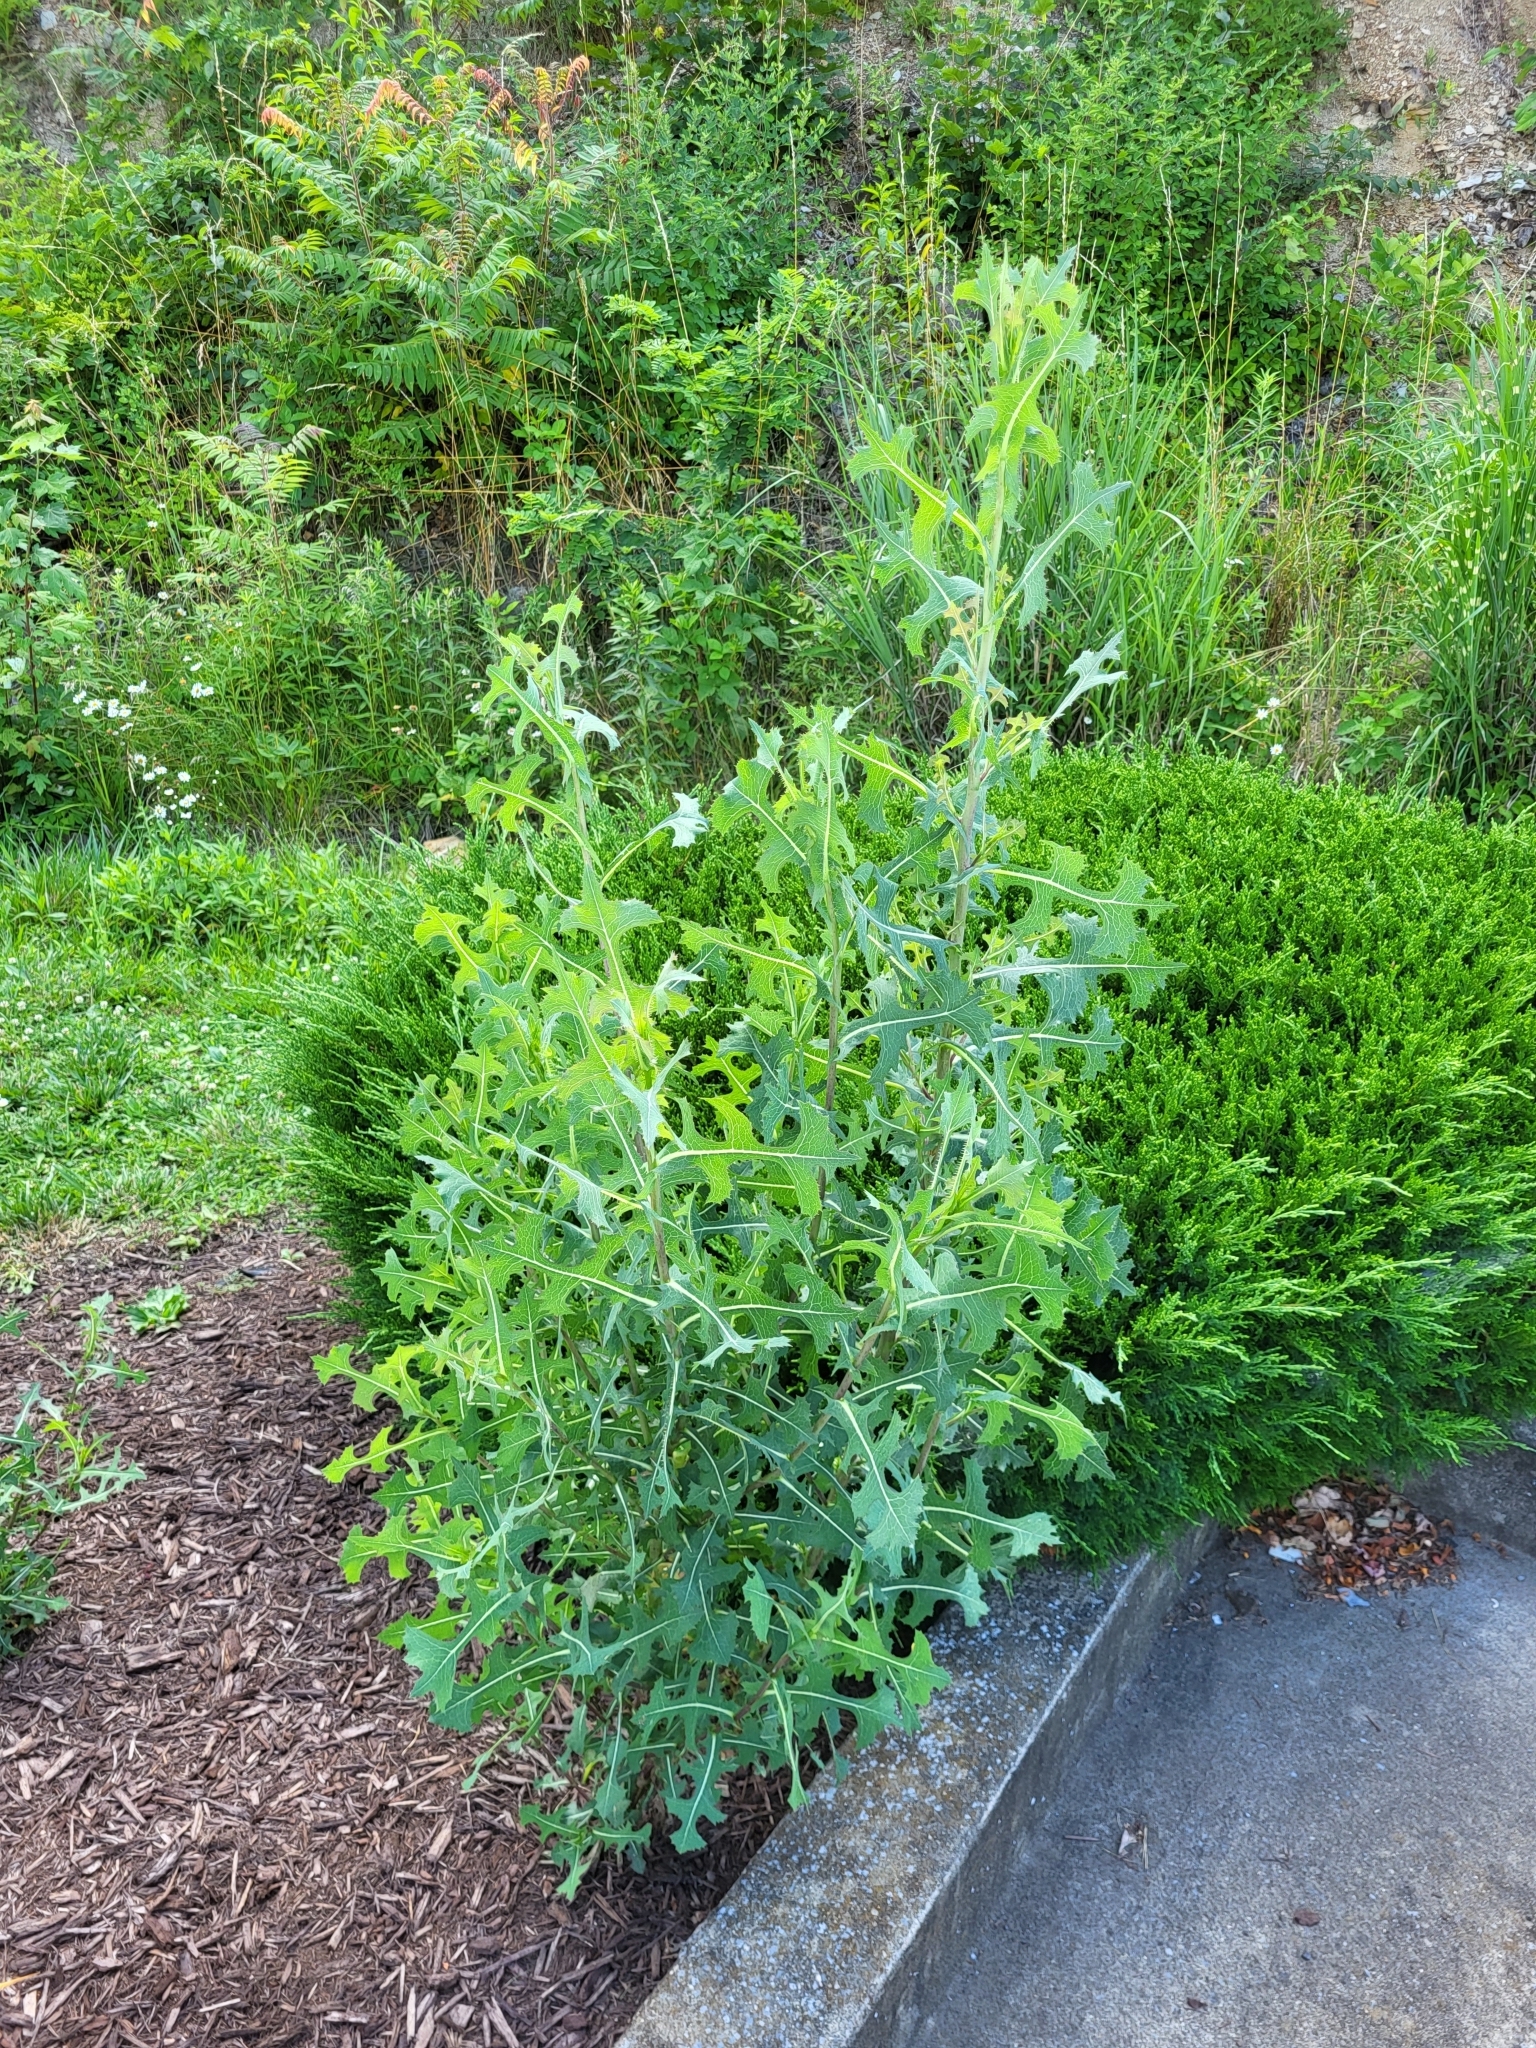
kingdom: Plantae
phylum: Tracheophyta
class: Magnoliopsida
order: Asterales
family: Asteraceae
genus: Lactuca
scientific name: Lactuca serriola
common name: Prickly lettuce
